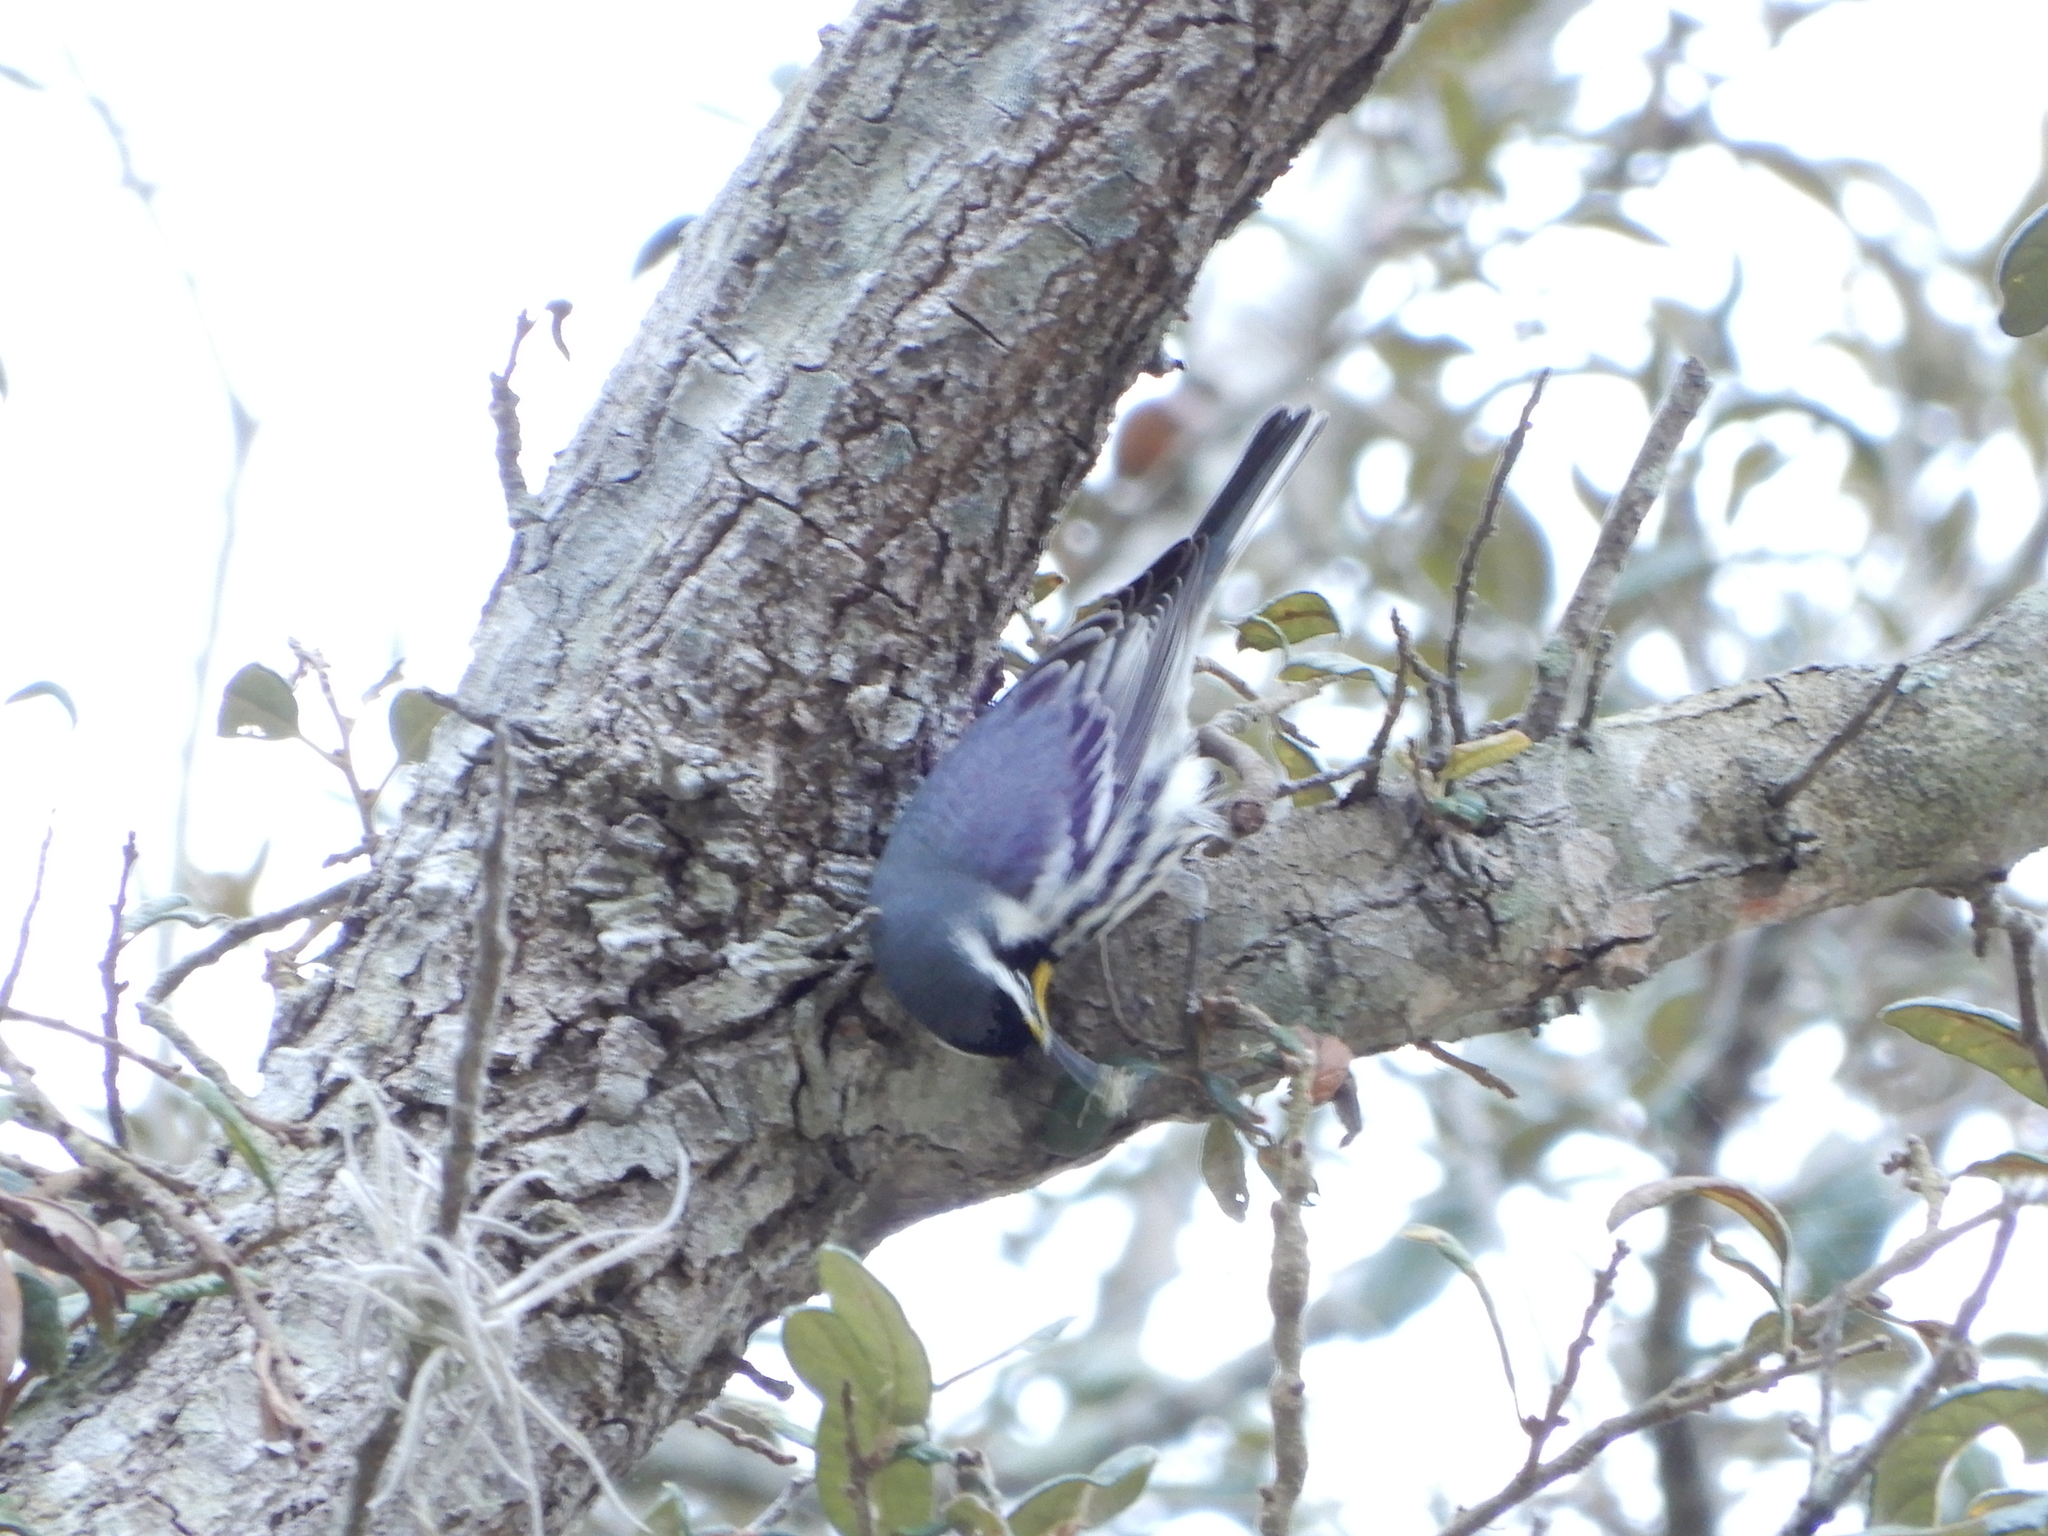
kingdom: Animalia
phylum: Chordata
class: Aves
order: Passeriformes
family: Parulidae
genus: Setophaga
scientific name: Setophaga dominica
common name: Yellow-throated warbler
